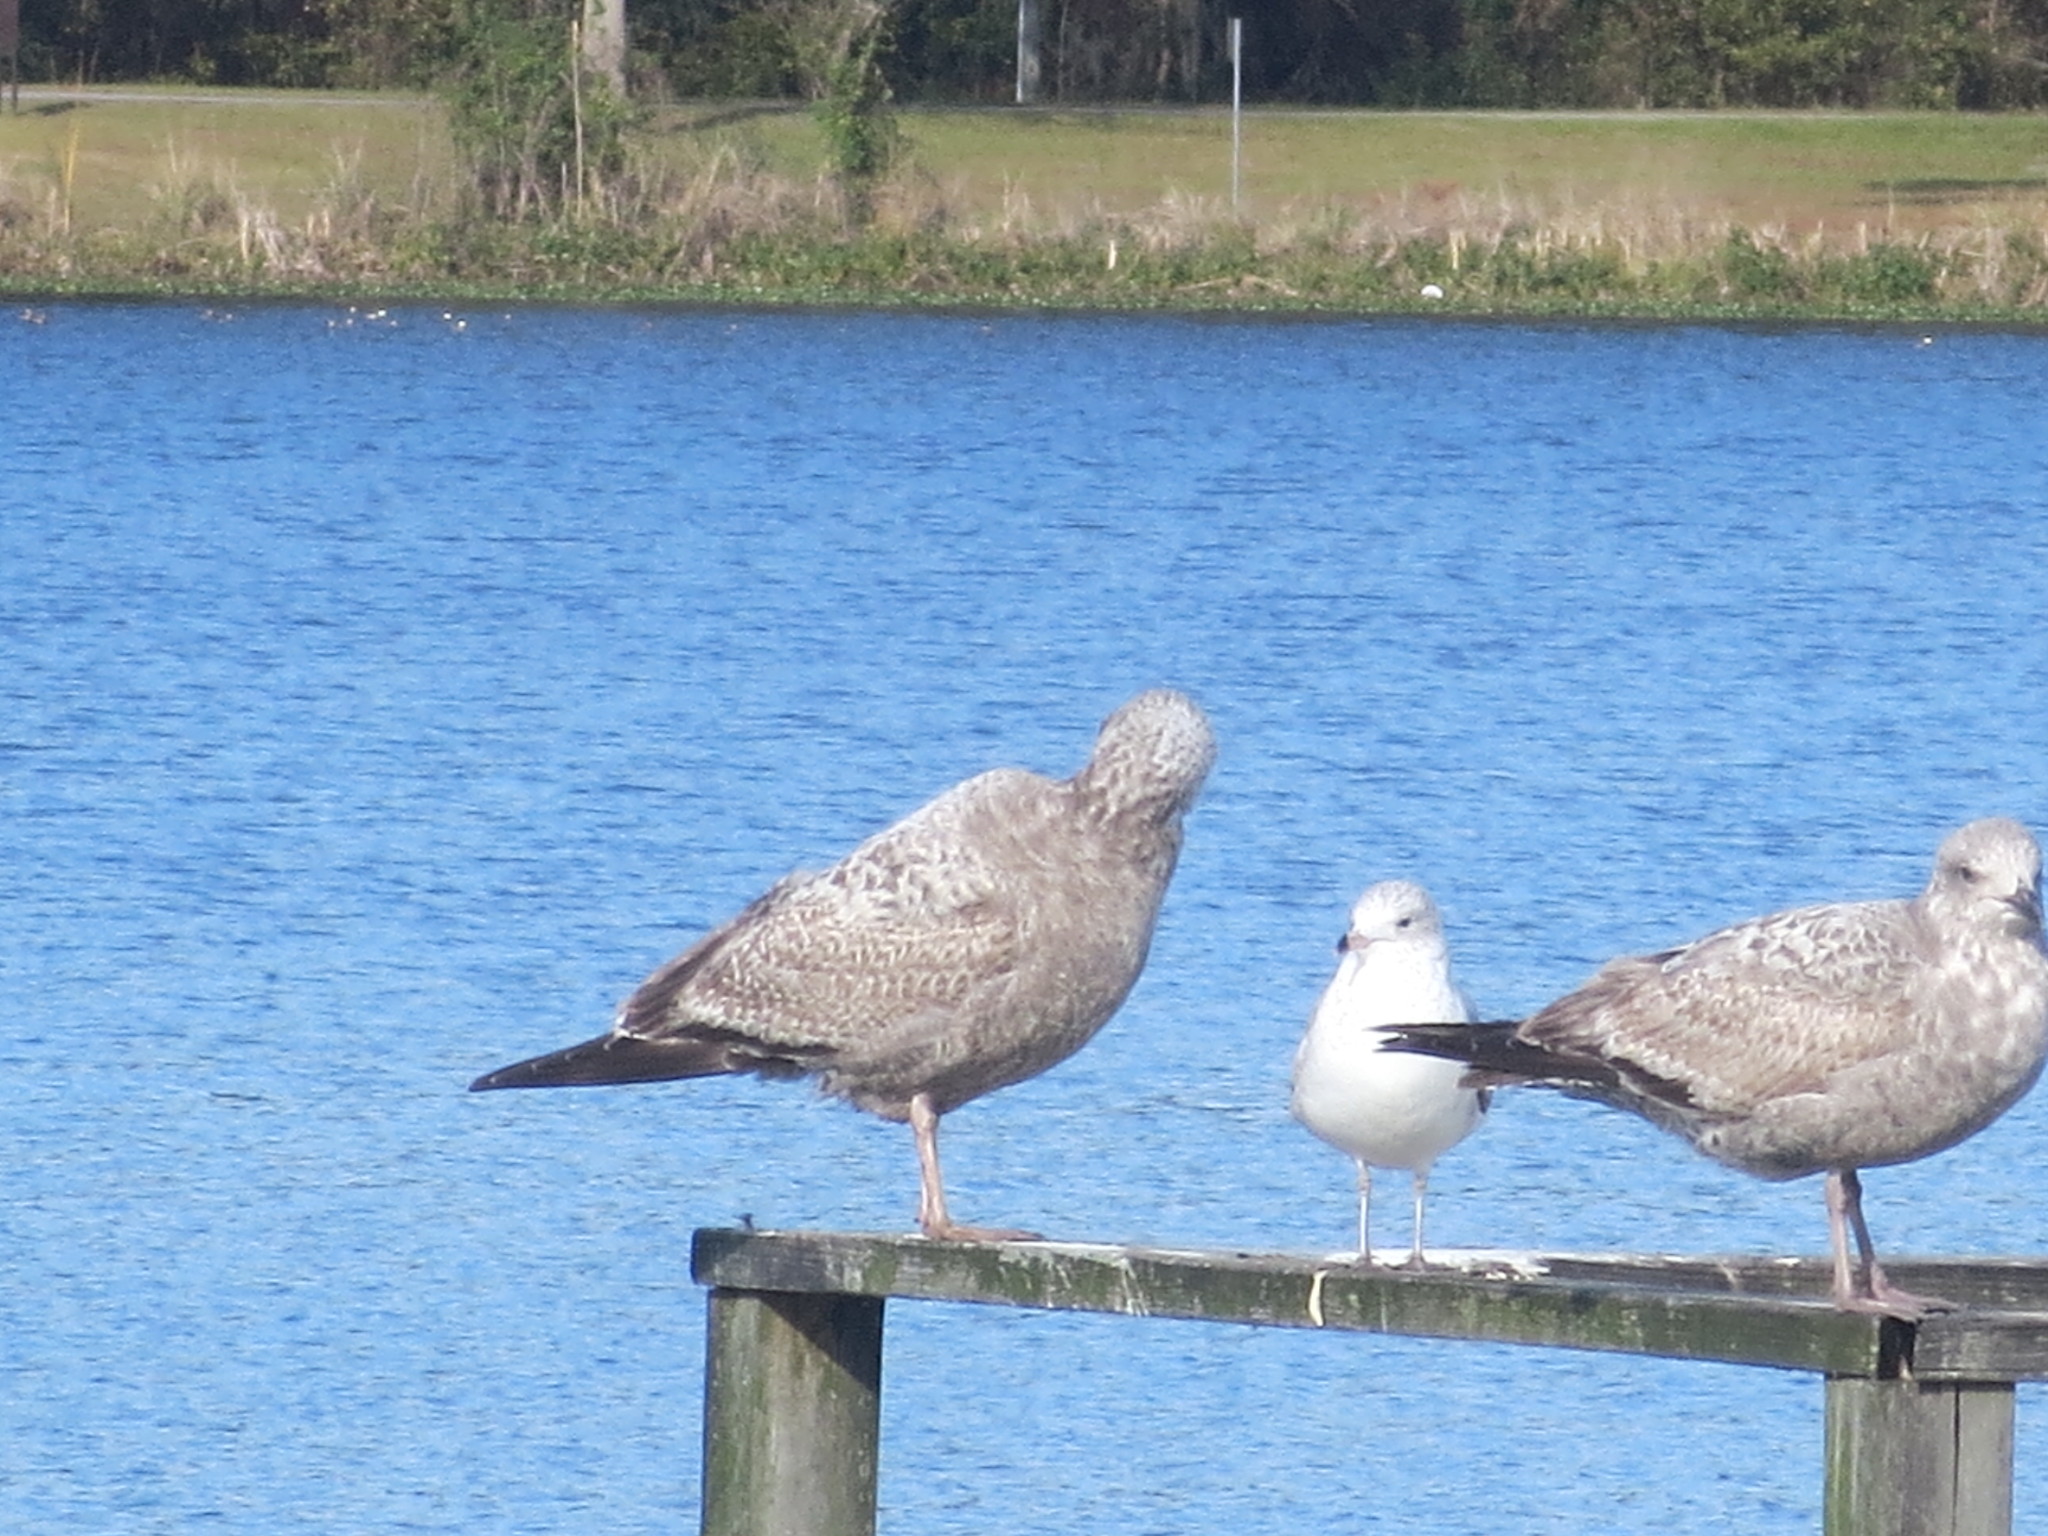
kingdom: Animalia
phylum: Chordata
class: Aves
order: Charadriiformes
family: Laridae
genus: Larus
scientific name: Larus argentatus
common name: Herring gull
